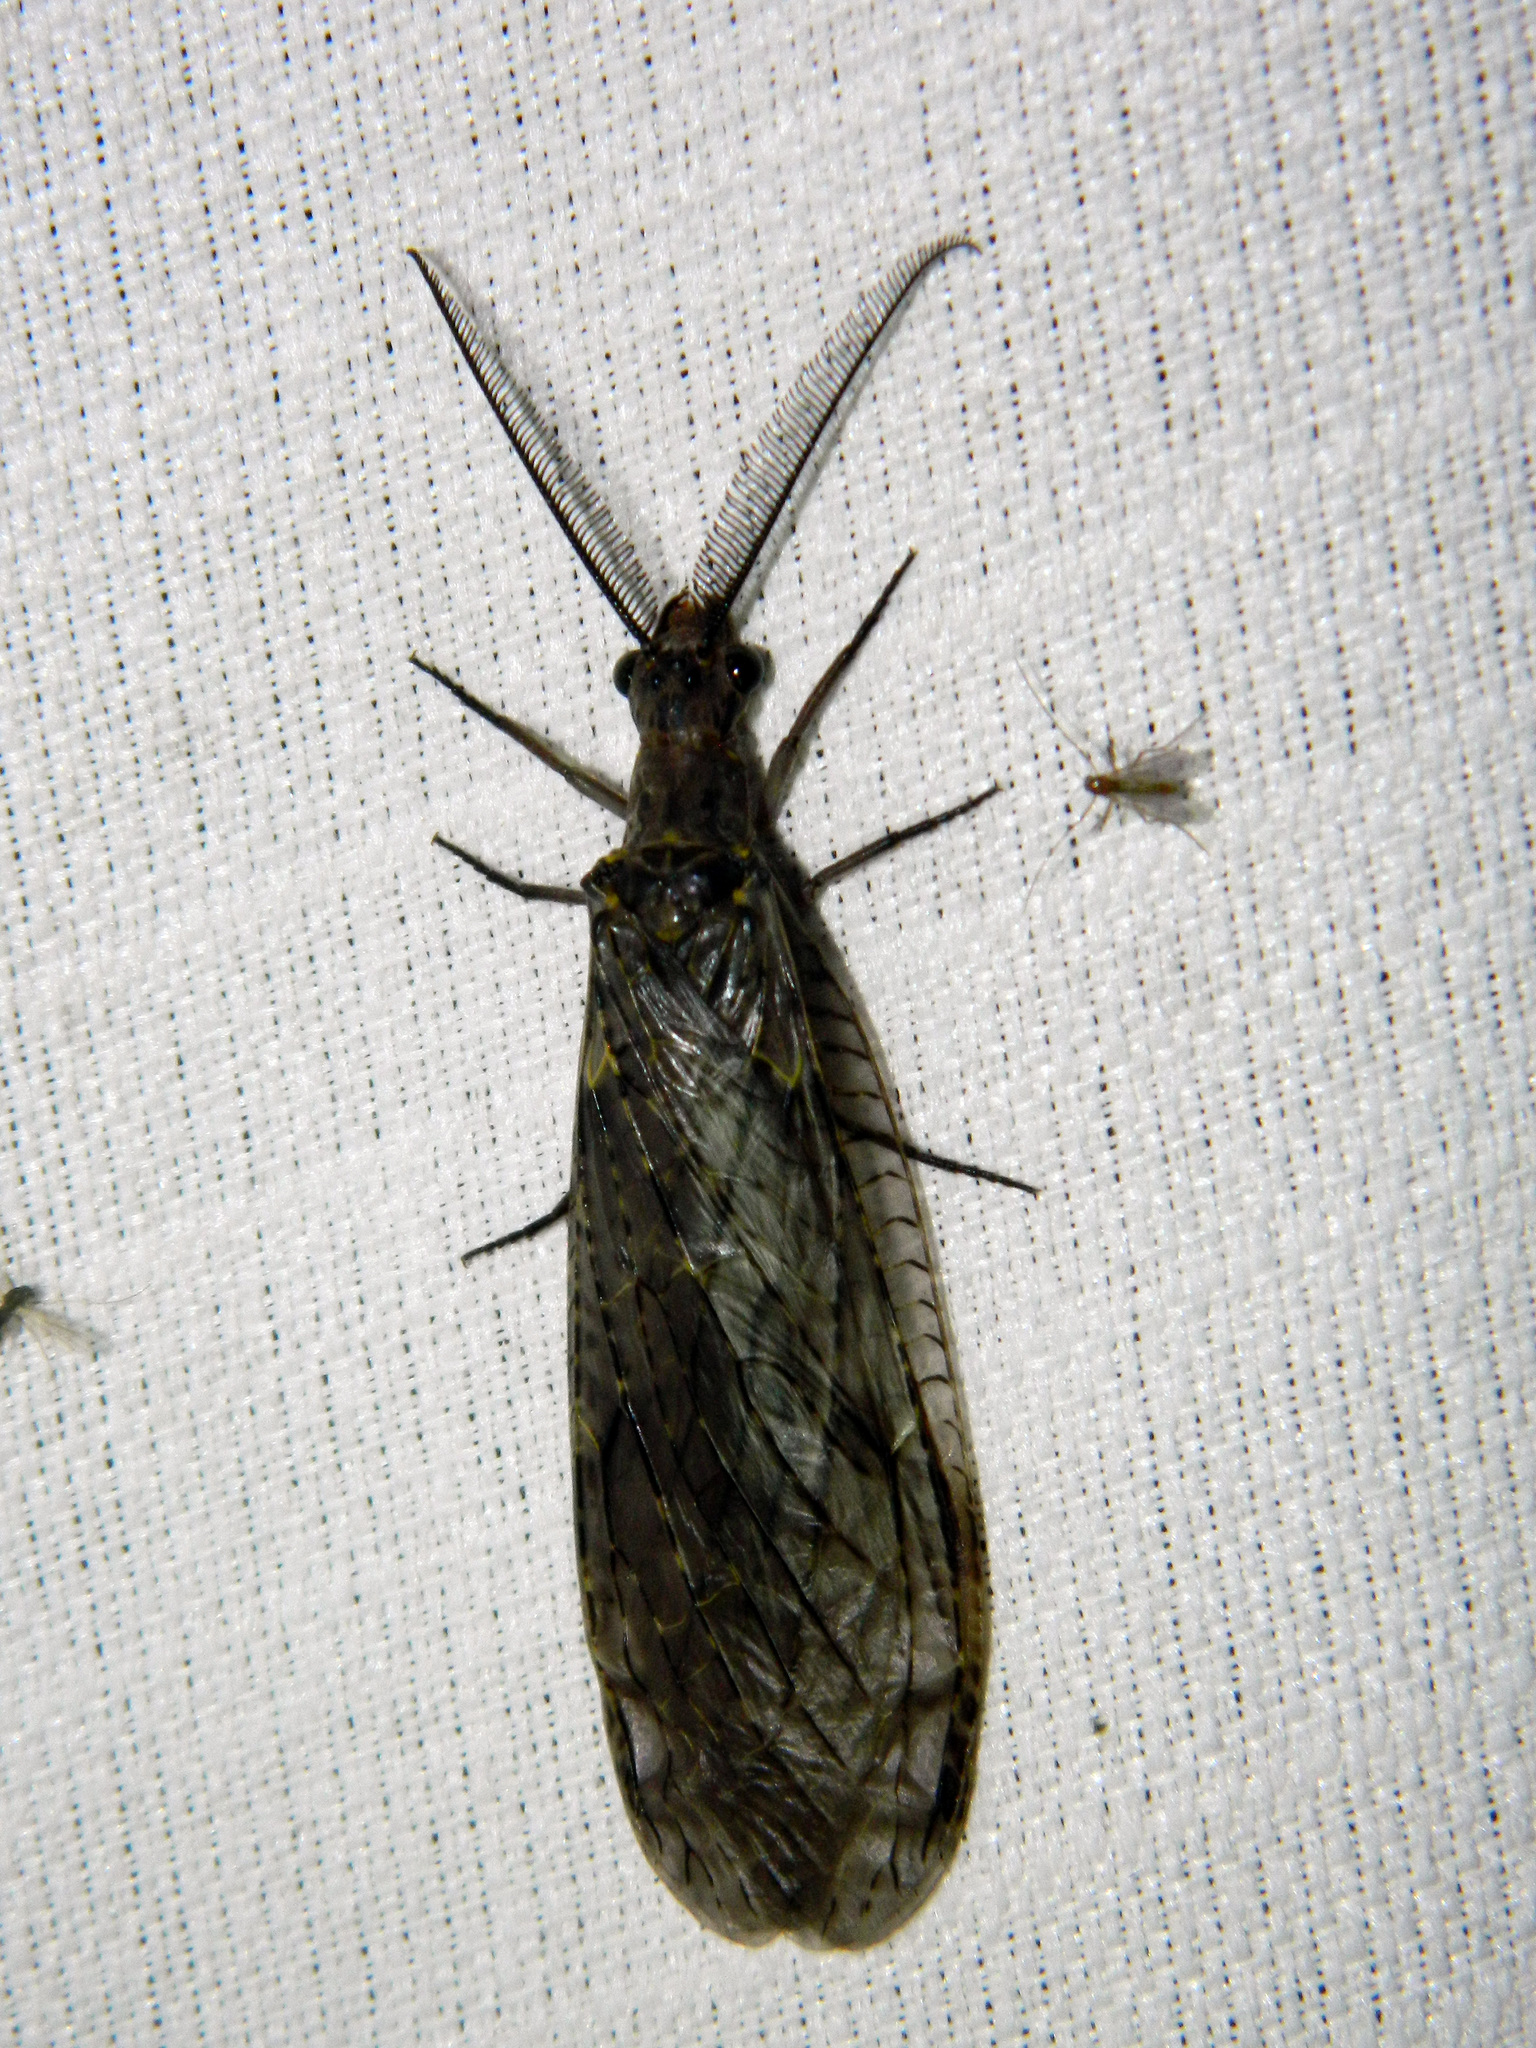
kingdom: Animalia
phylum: Arthropoda
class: Insecta
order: Megaloptera
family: Corydalidae
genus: Chauliodes
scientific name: Chauliodes rastricornis
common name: Spring fishfly
